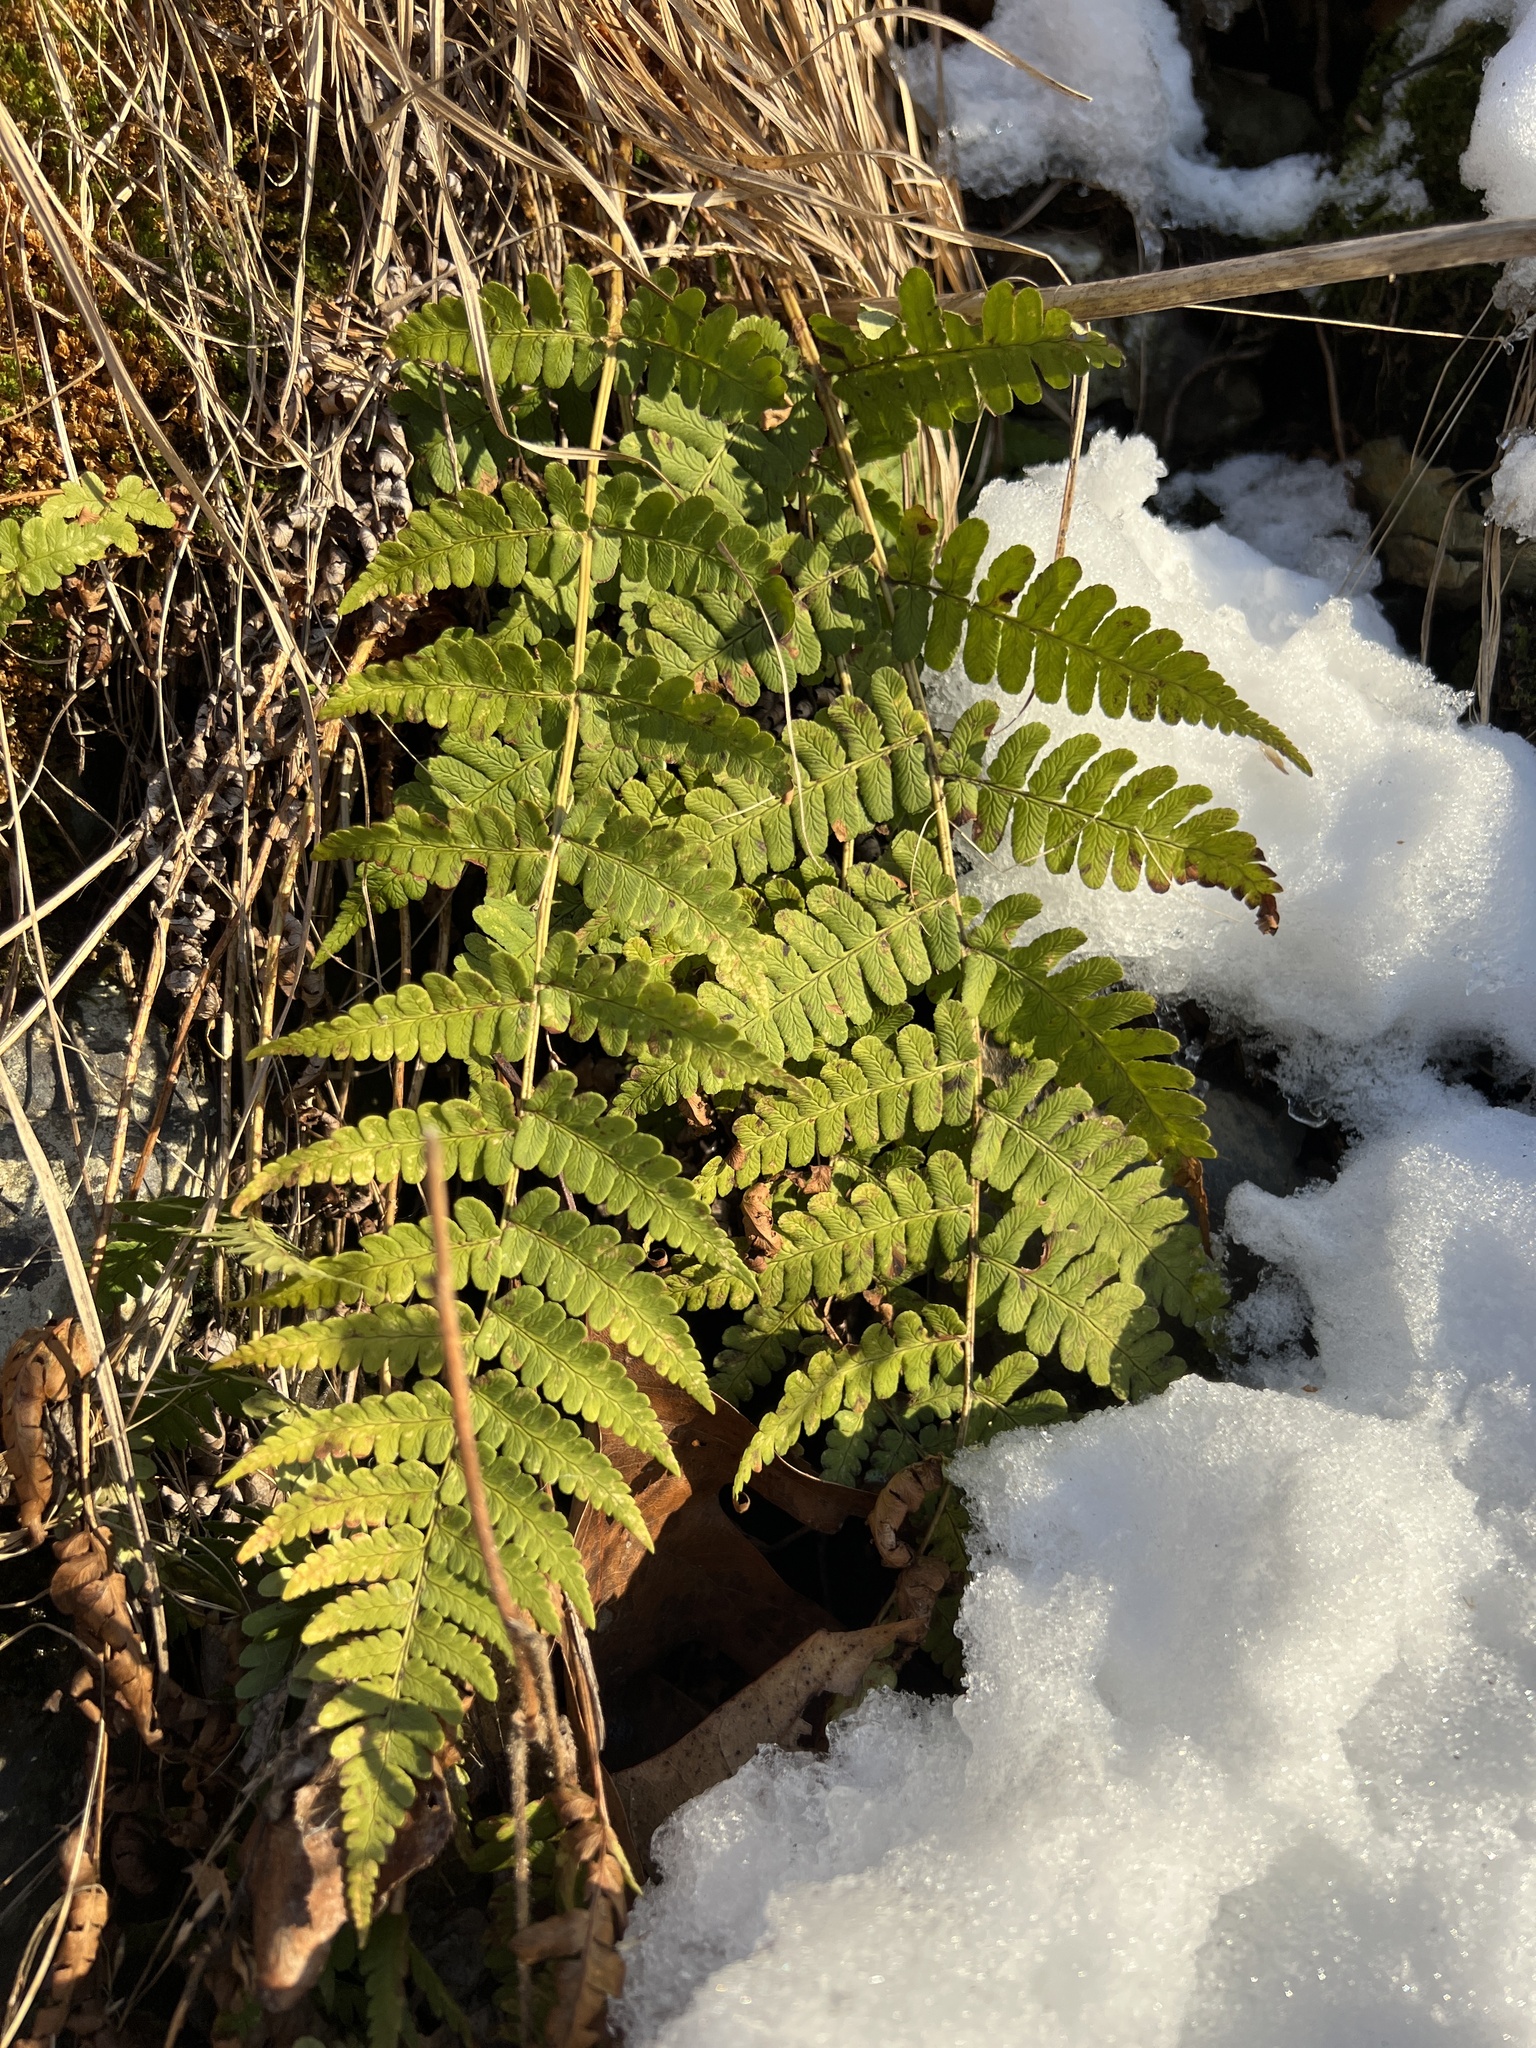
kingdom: Plantae
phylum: Tracheophyta
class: Polypodiopsida
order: Polypodiales
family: Dryopteridaceae
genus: Dryopteris
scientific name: Dryopteris marginalis
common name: Marginal wood fern
